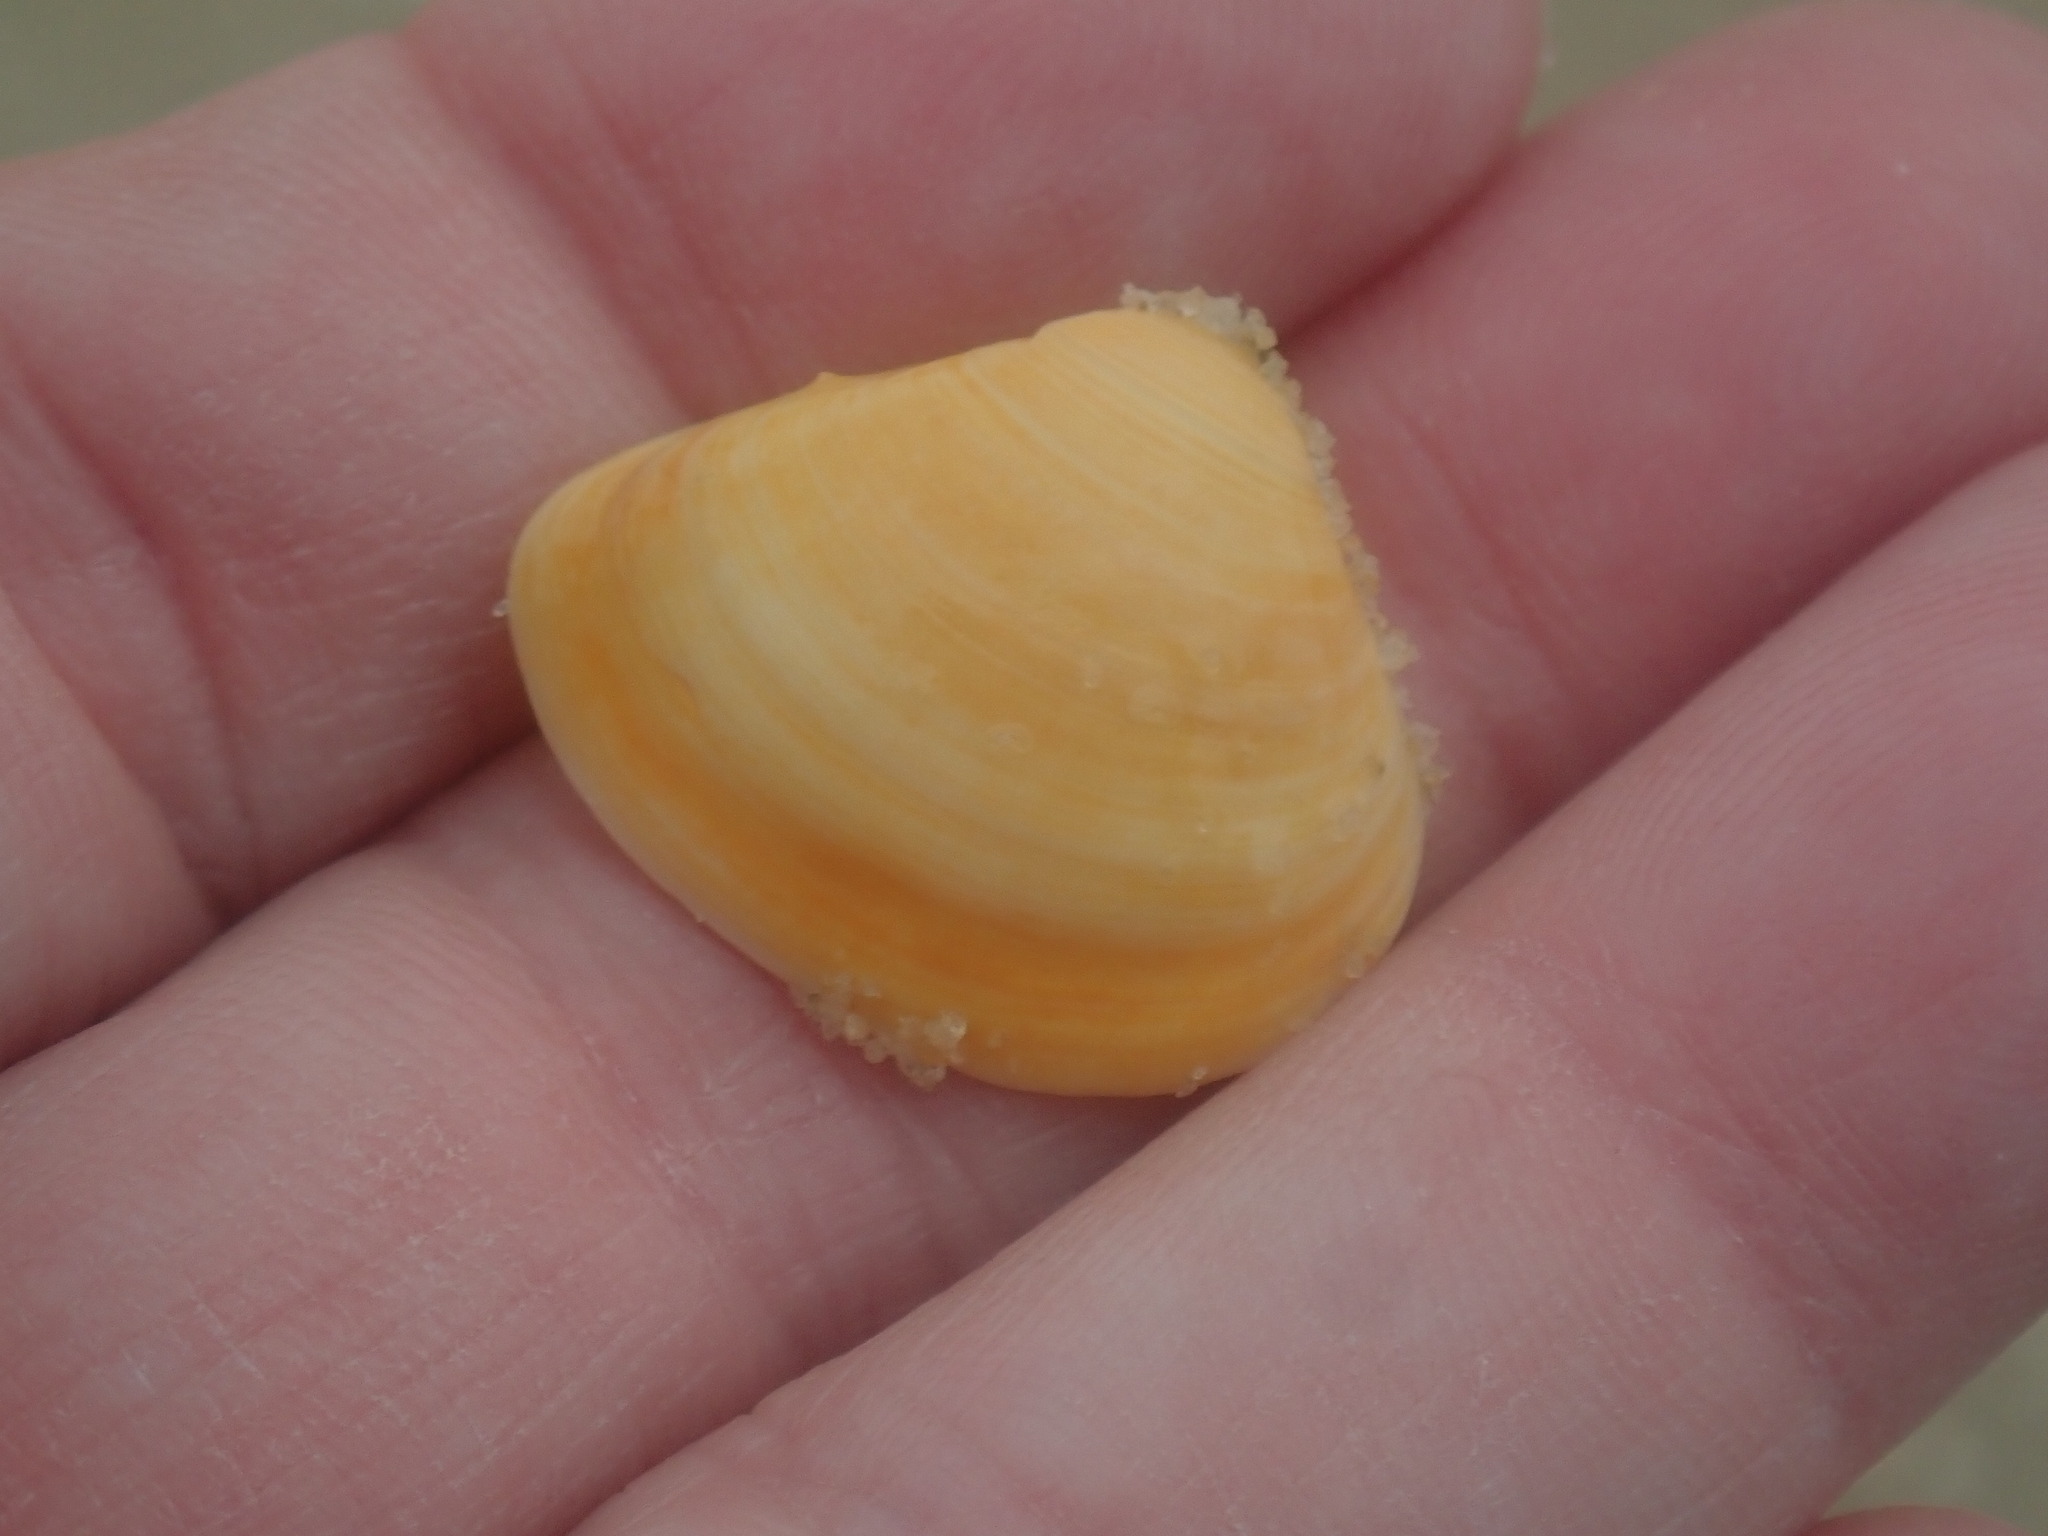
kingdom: Animalia
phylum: Mollusca
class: Bivalvia
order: Venerida
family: Mactridae
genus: Spisula
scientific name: Spisula trigonella
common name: Trigonal mactra
